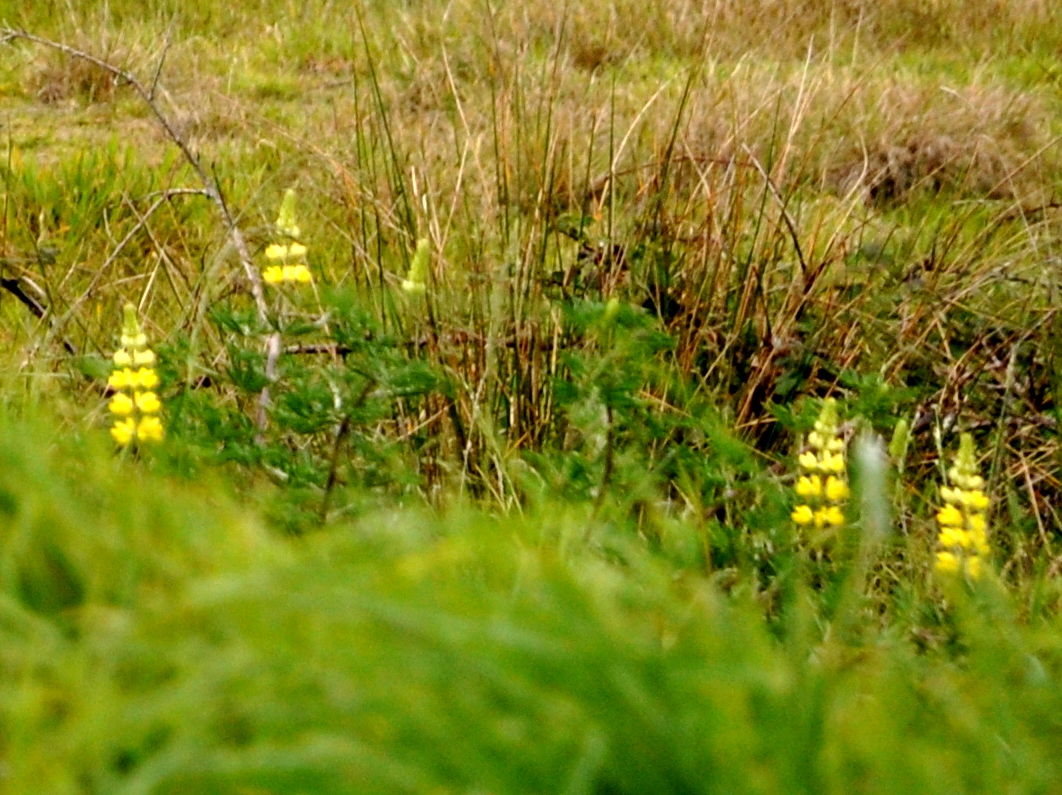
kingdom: Plantae
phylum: Tracheophyta
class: Magnoliopsida
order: Fabales
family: Fabaceae
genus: Lupinus
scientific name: Lupinus arboreus
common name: Yellow bush lupine
